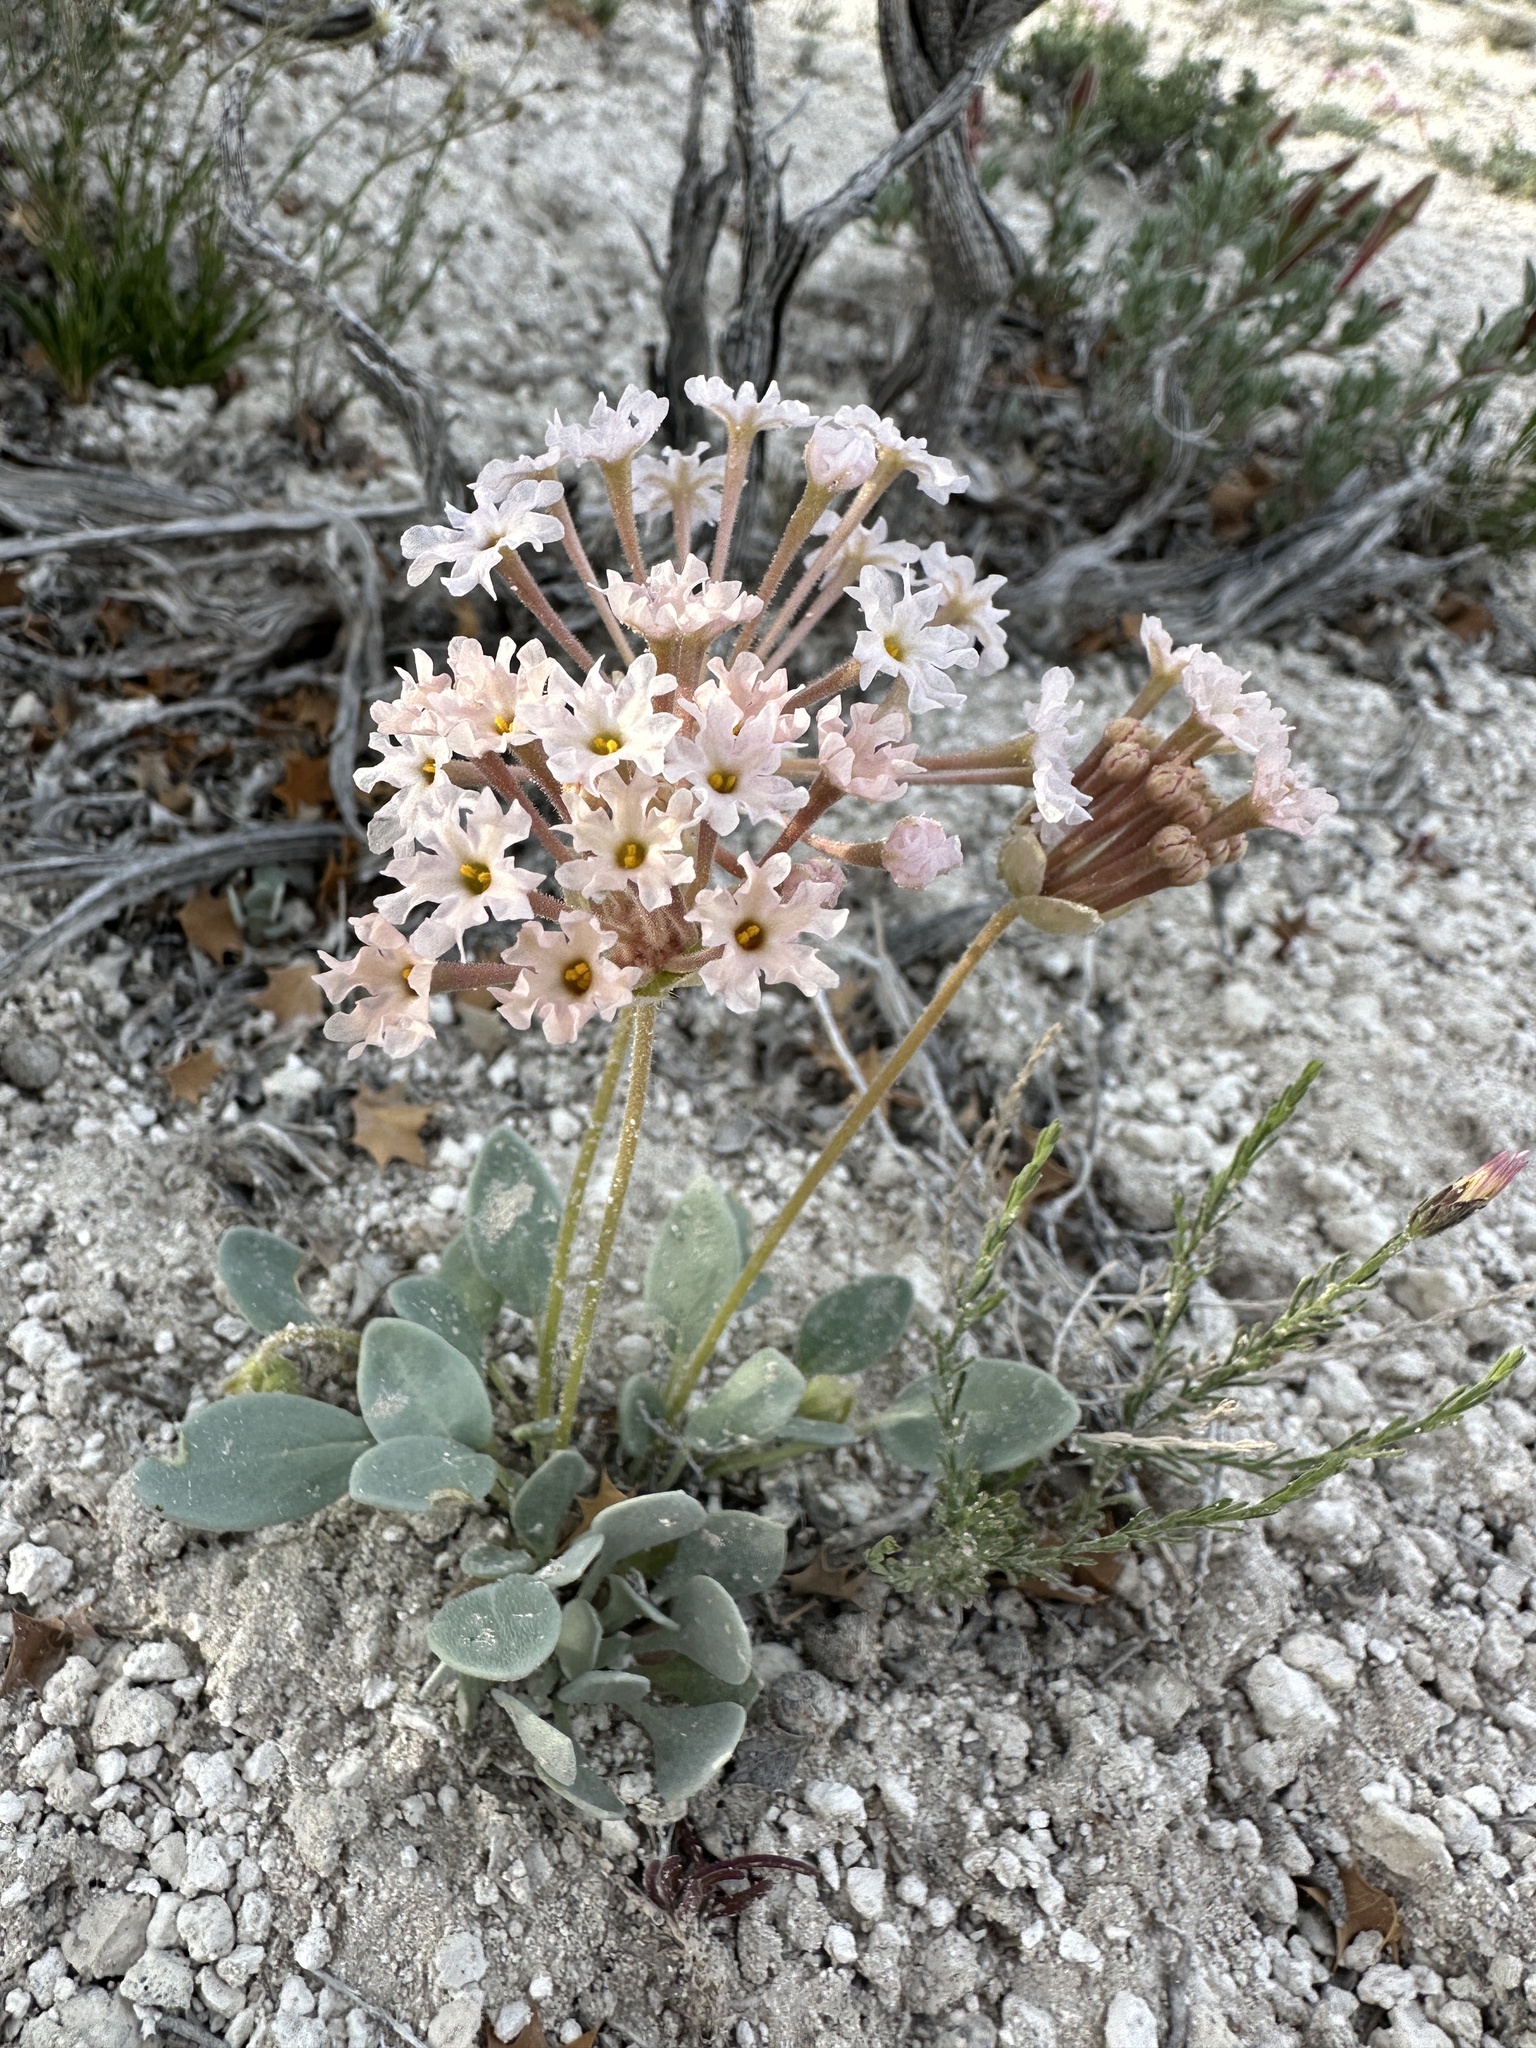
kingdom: Plantae
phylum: Tracheophyta
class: Magnoliopsida
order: Caryophyllales
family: Nyctaginaceae
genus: Abronia
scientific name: Abronia nana
